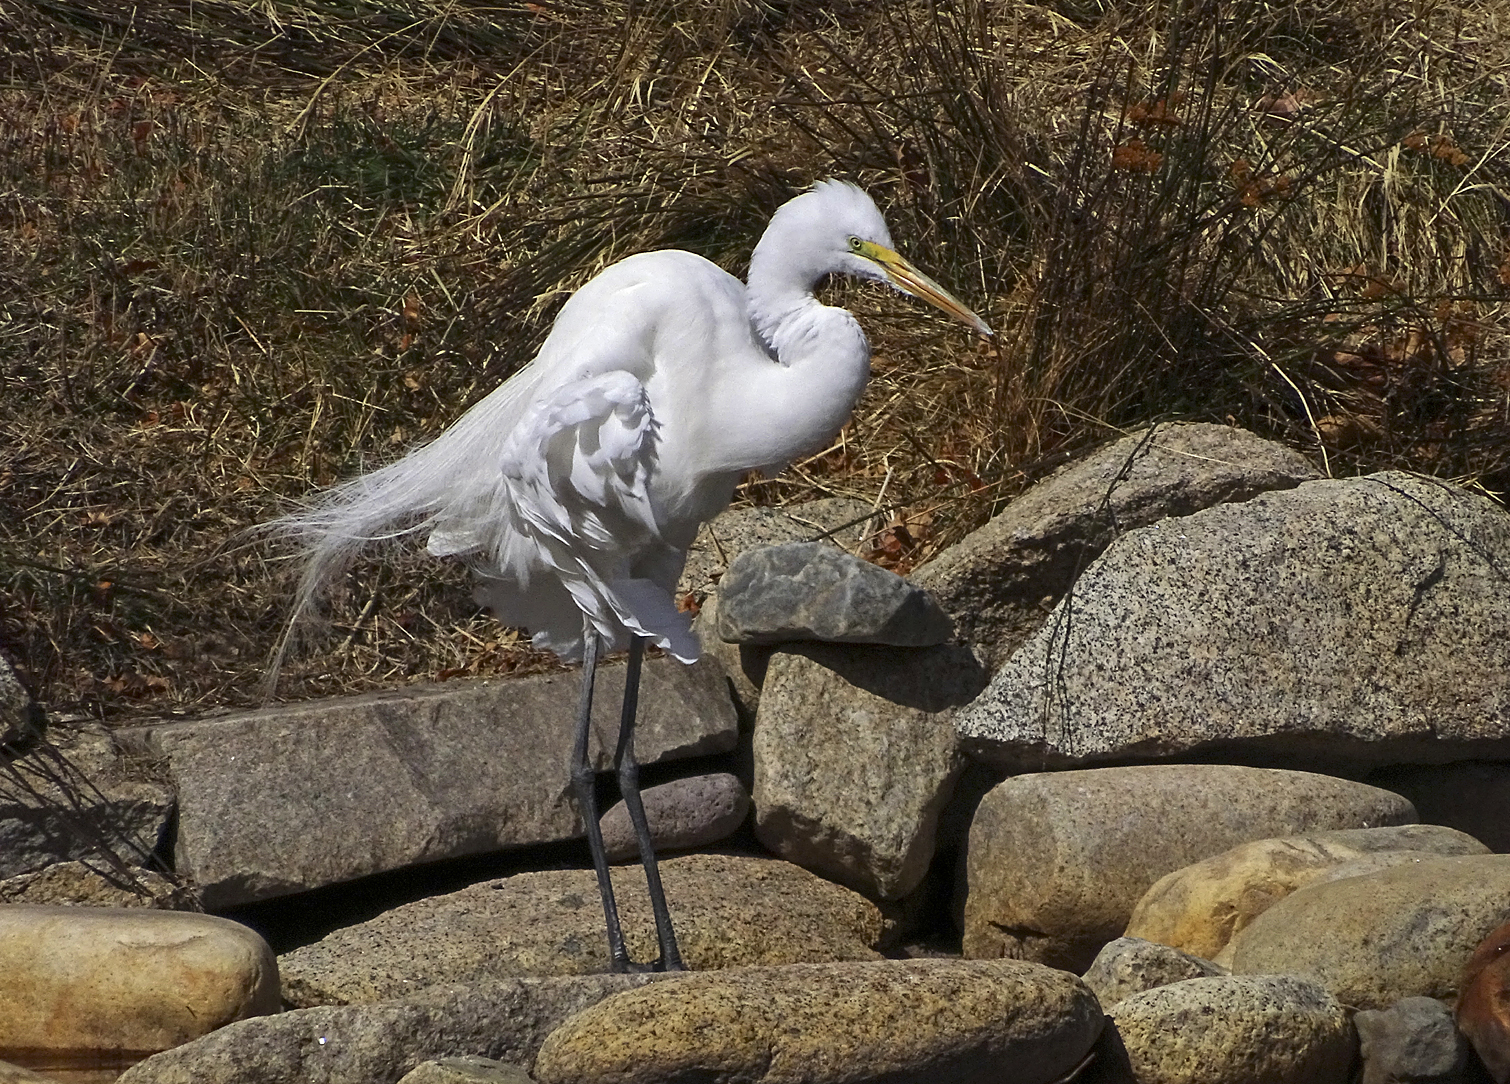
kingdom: Animalia
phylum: Chordata
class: Aves
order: Pelecaniformes
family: Ardeidae
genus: Ardea
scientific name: Ardea alba
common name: Great egret
